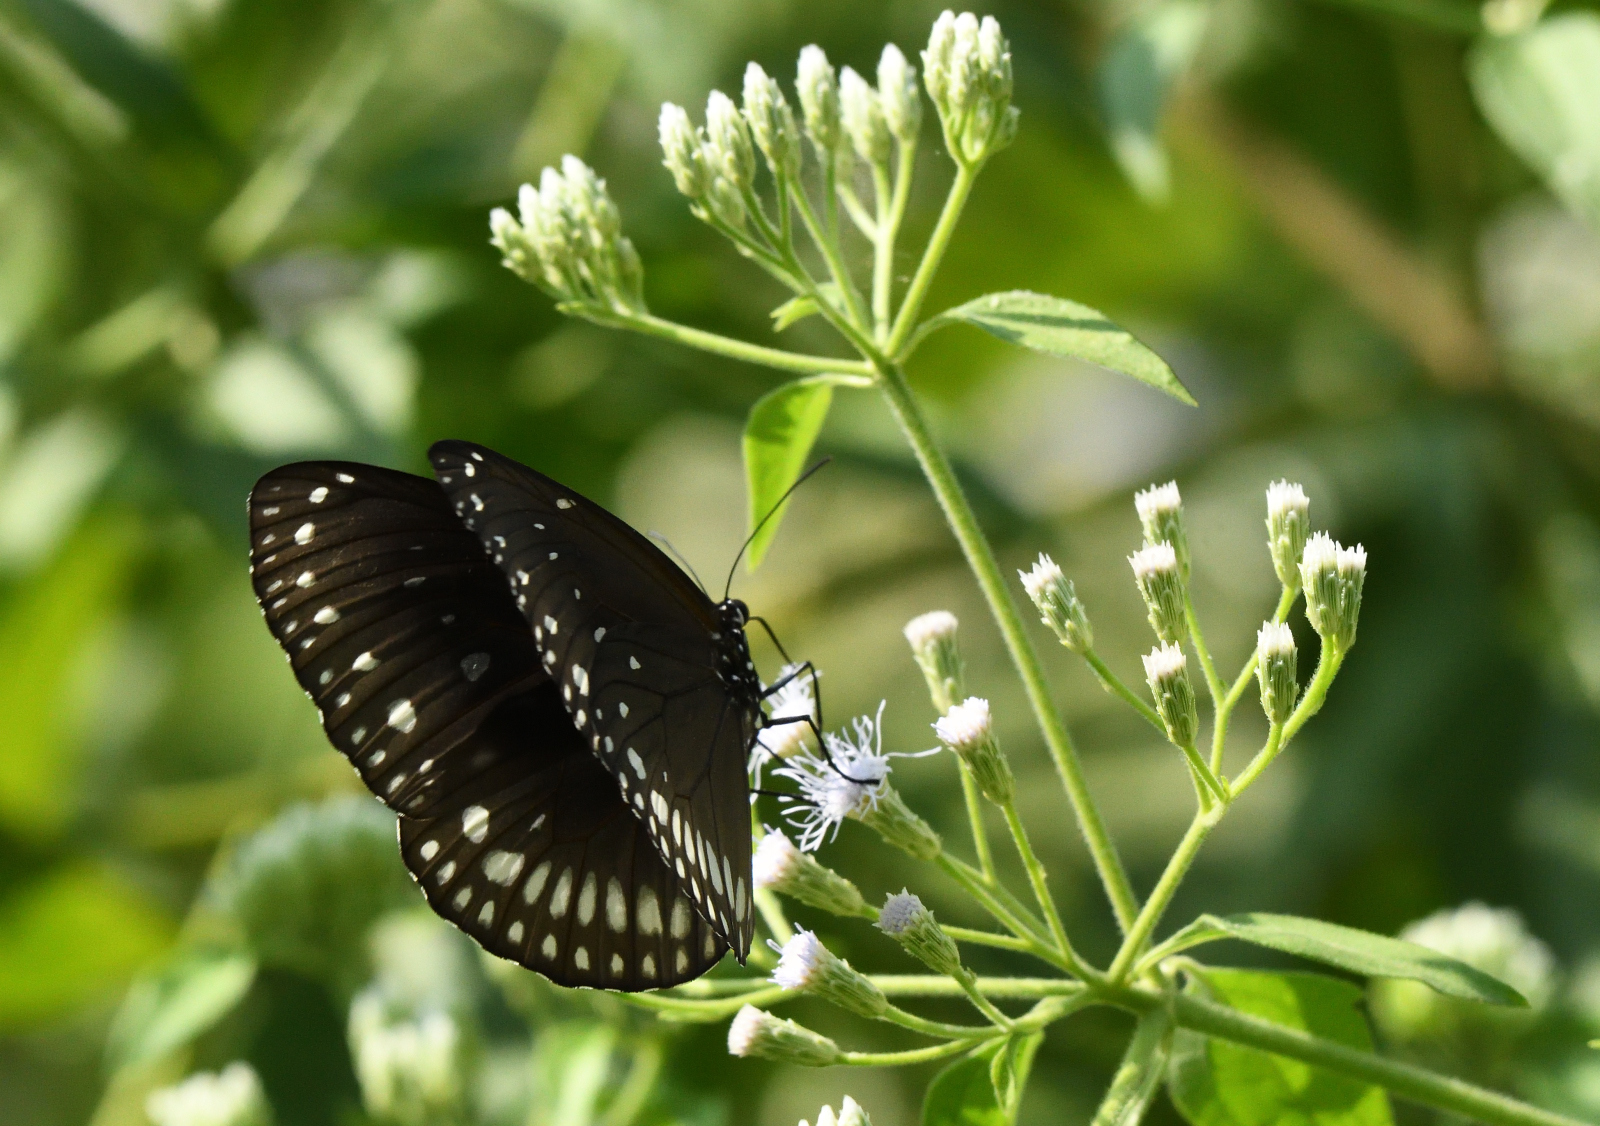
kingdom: Animalia
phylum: Arthropoda
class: Insecta
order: Lepidoptera
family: Nymphalidae
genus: Euploea
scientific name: Euploea klugii
